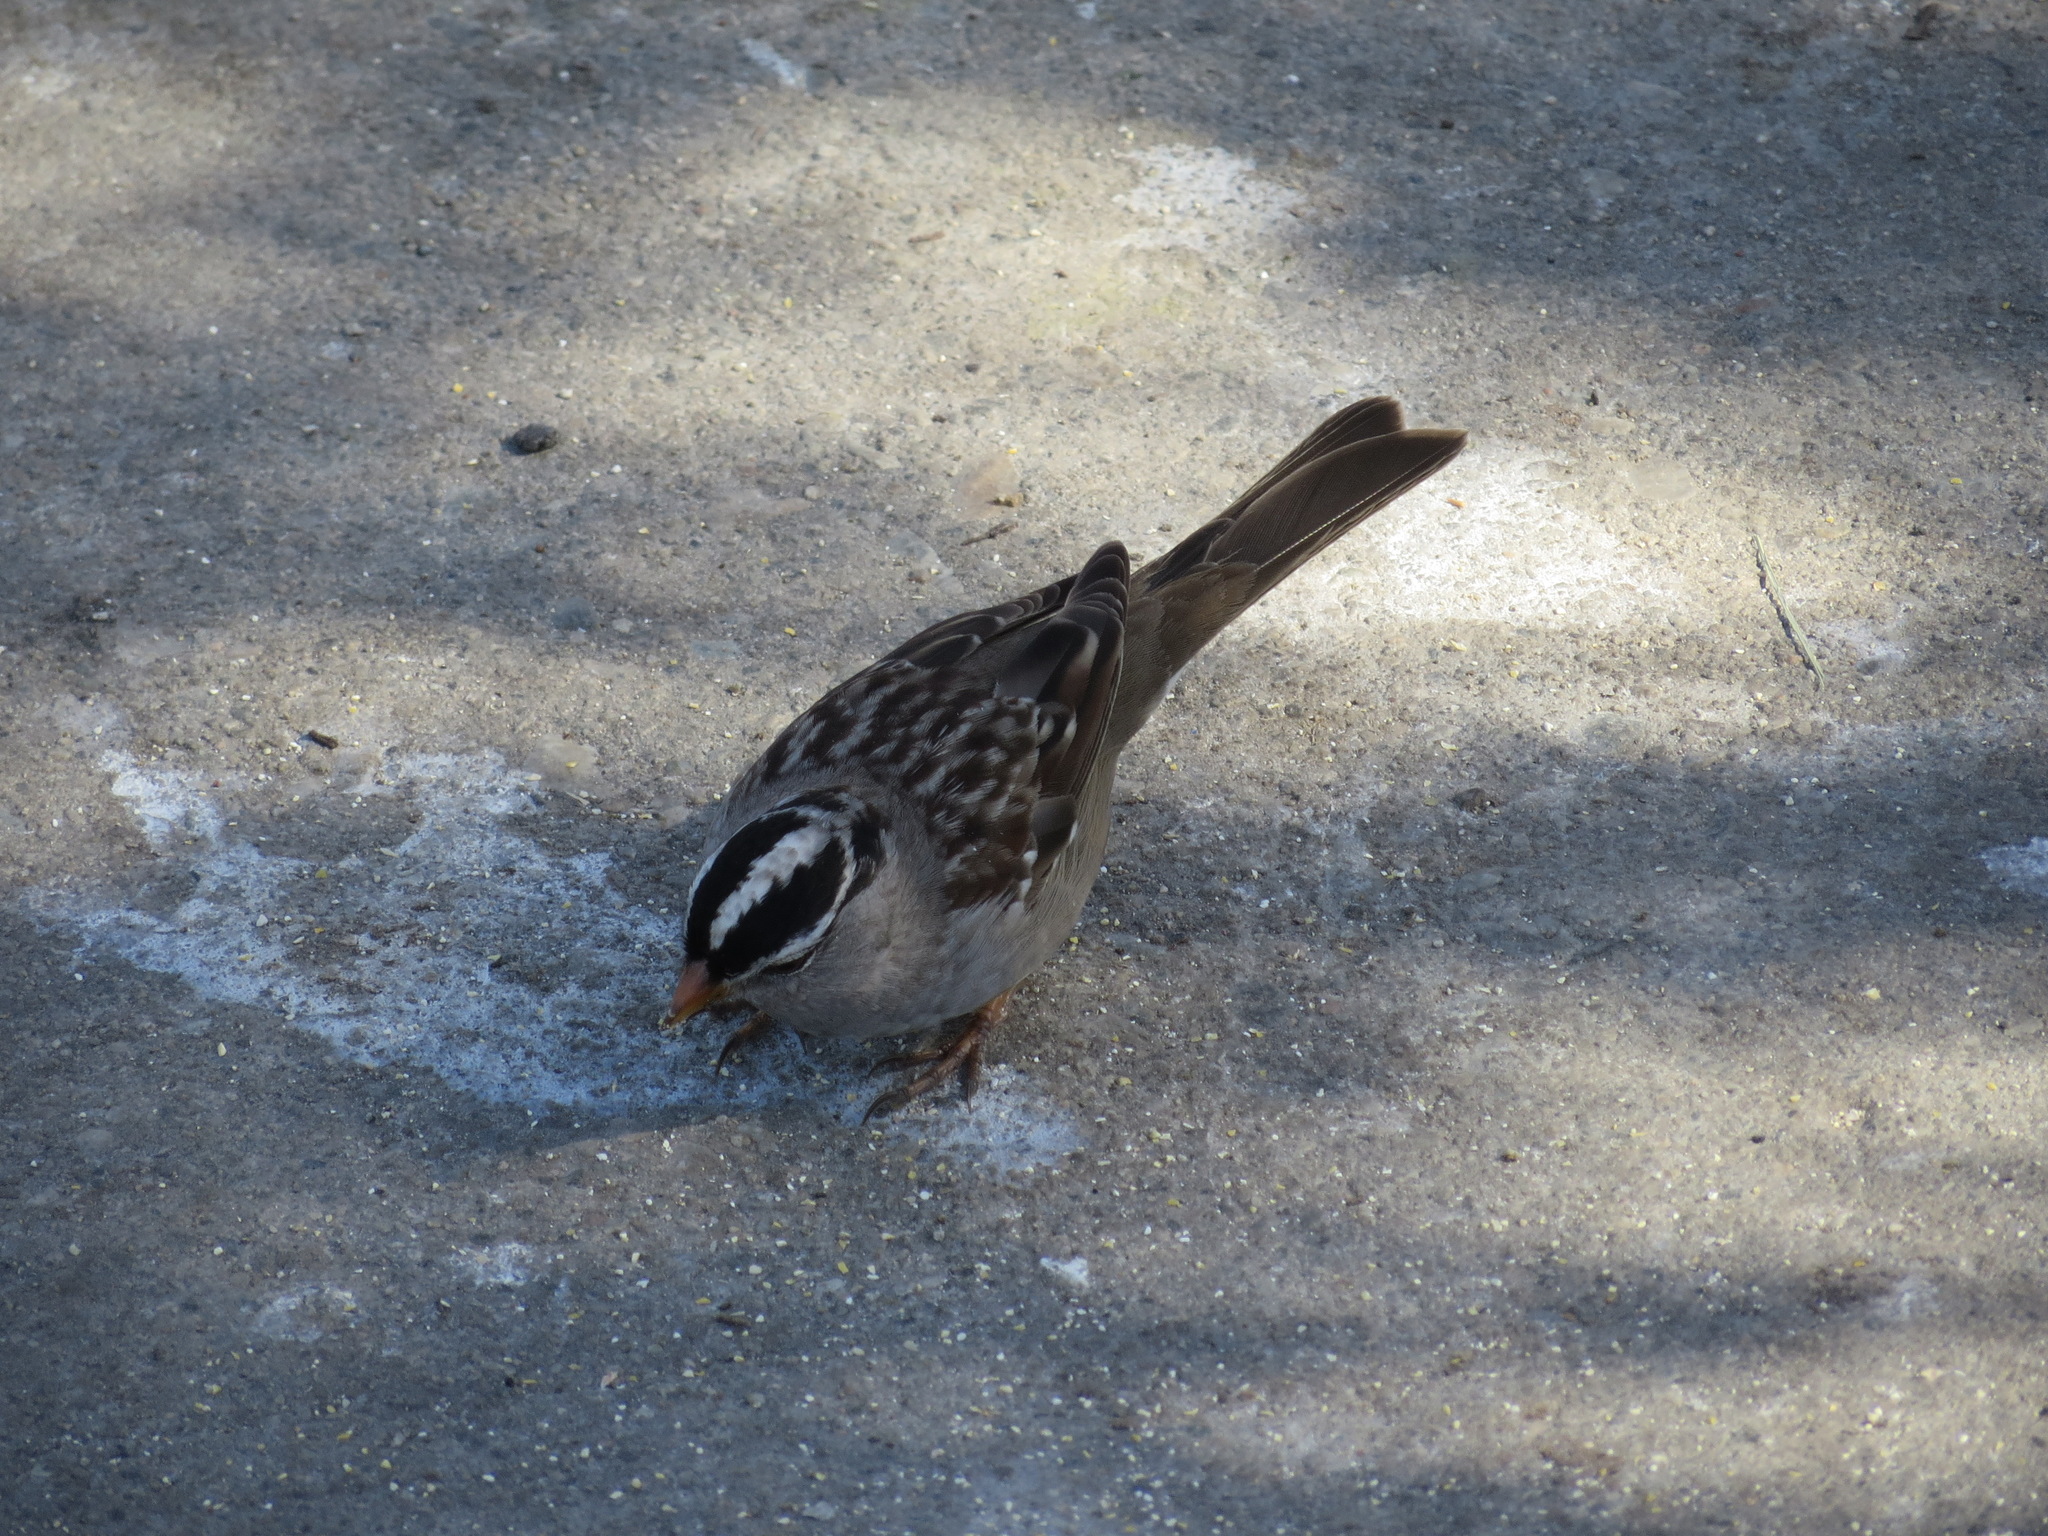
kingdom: Animalia
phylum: Chordata
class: Aves
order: Passeriformes
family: Passerellidae
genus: Zonotrichia
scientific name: Zonotrichia leucophrys
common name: White-crowned sparrow
